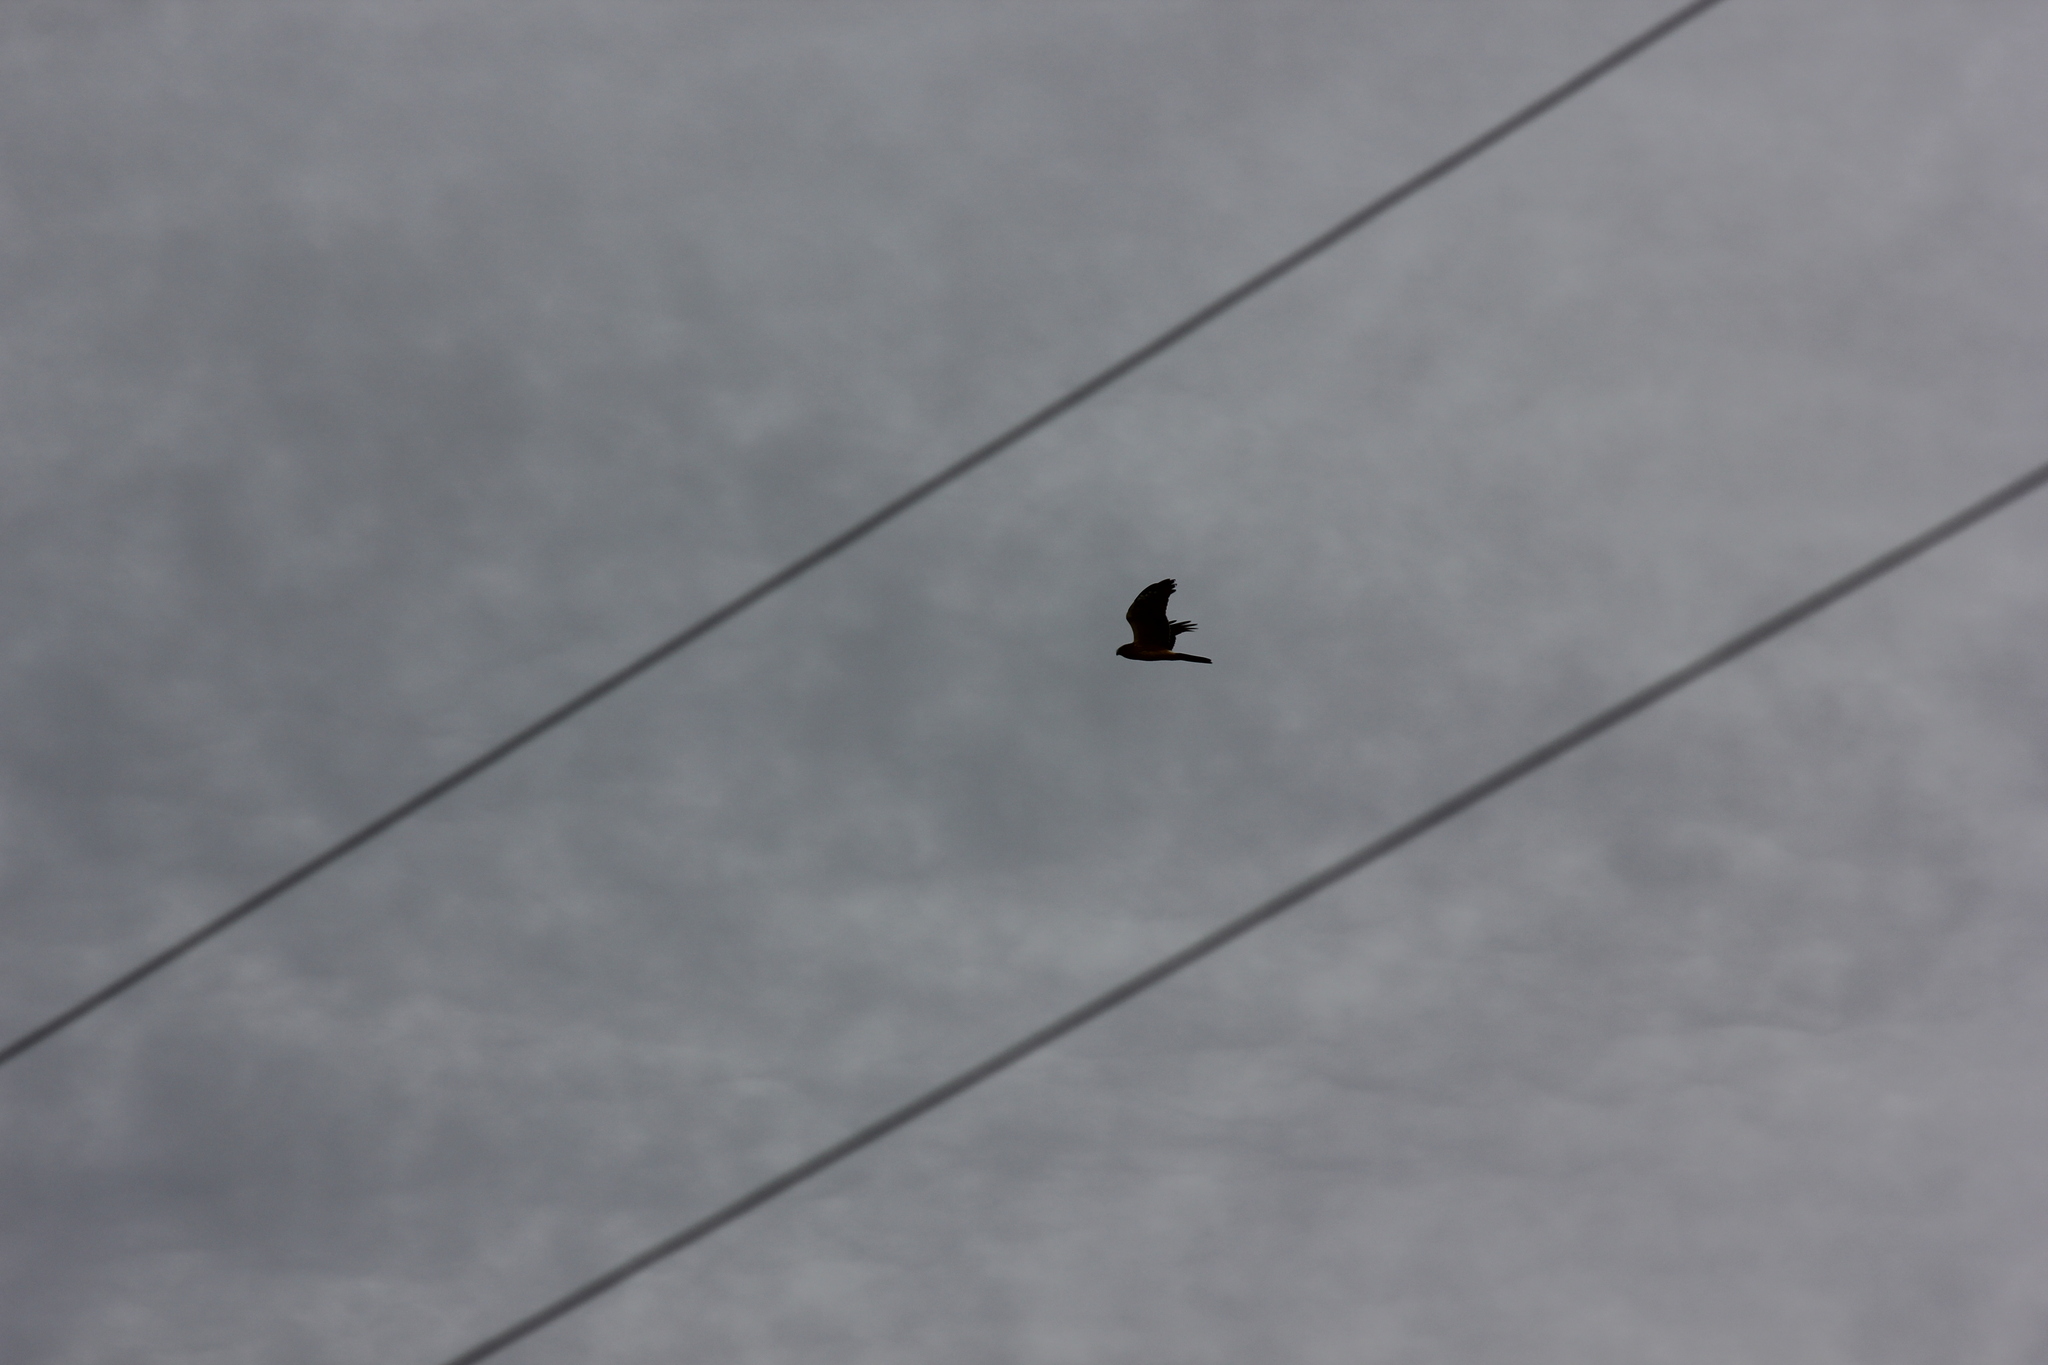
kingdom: Animalia
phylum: Chordata
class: Aves
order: Accipitriformes
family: Accipitridae
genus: Circus
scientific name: Circus cyaneus
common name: Hen harrier
